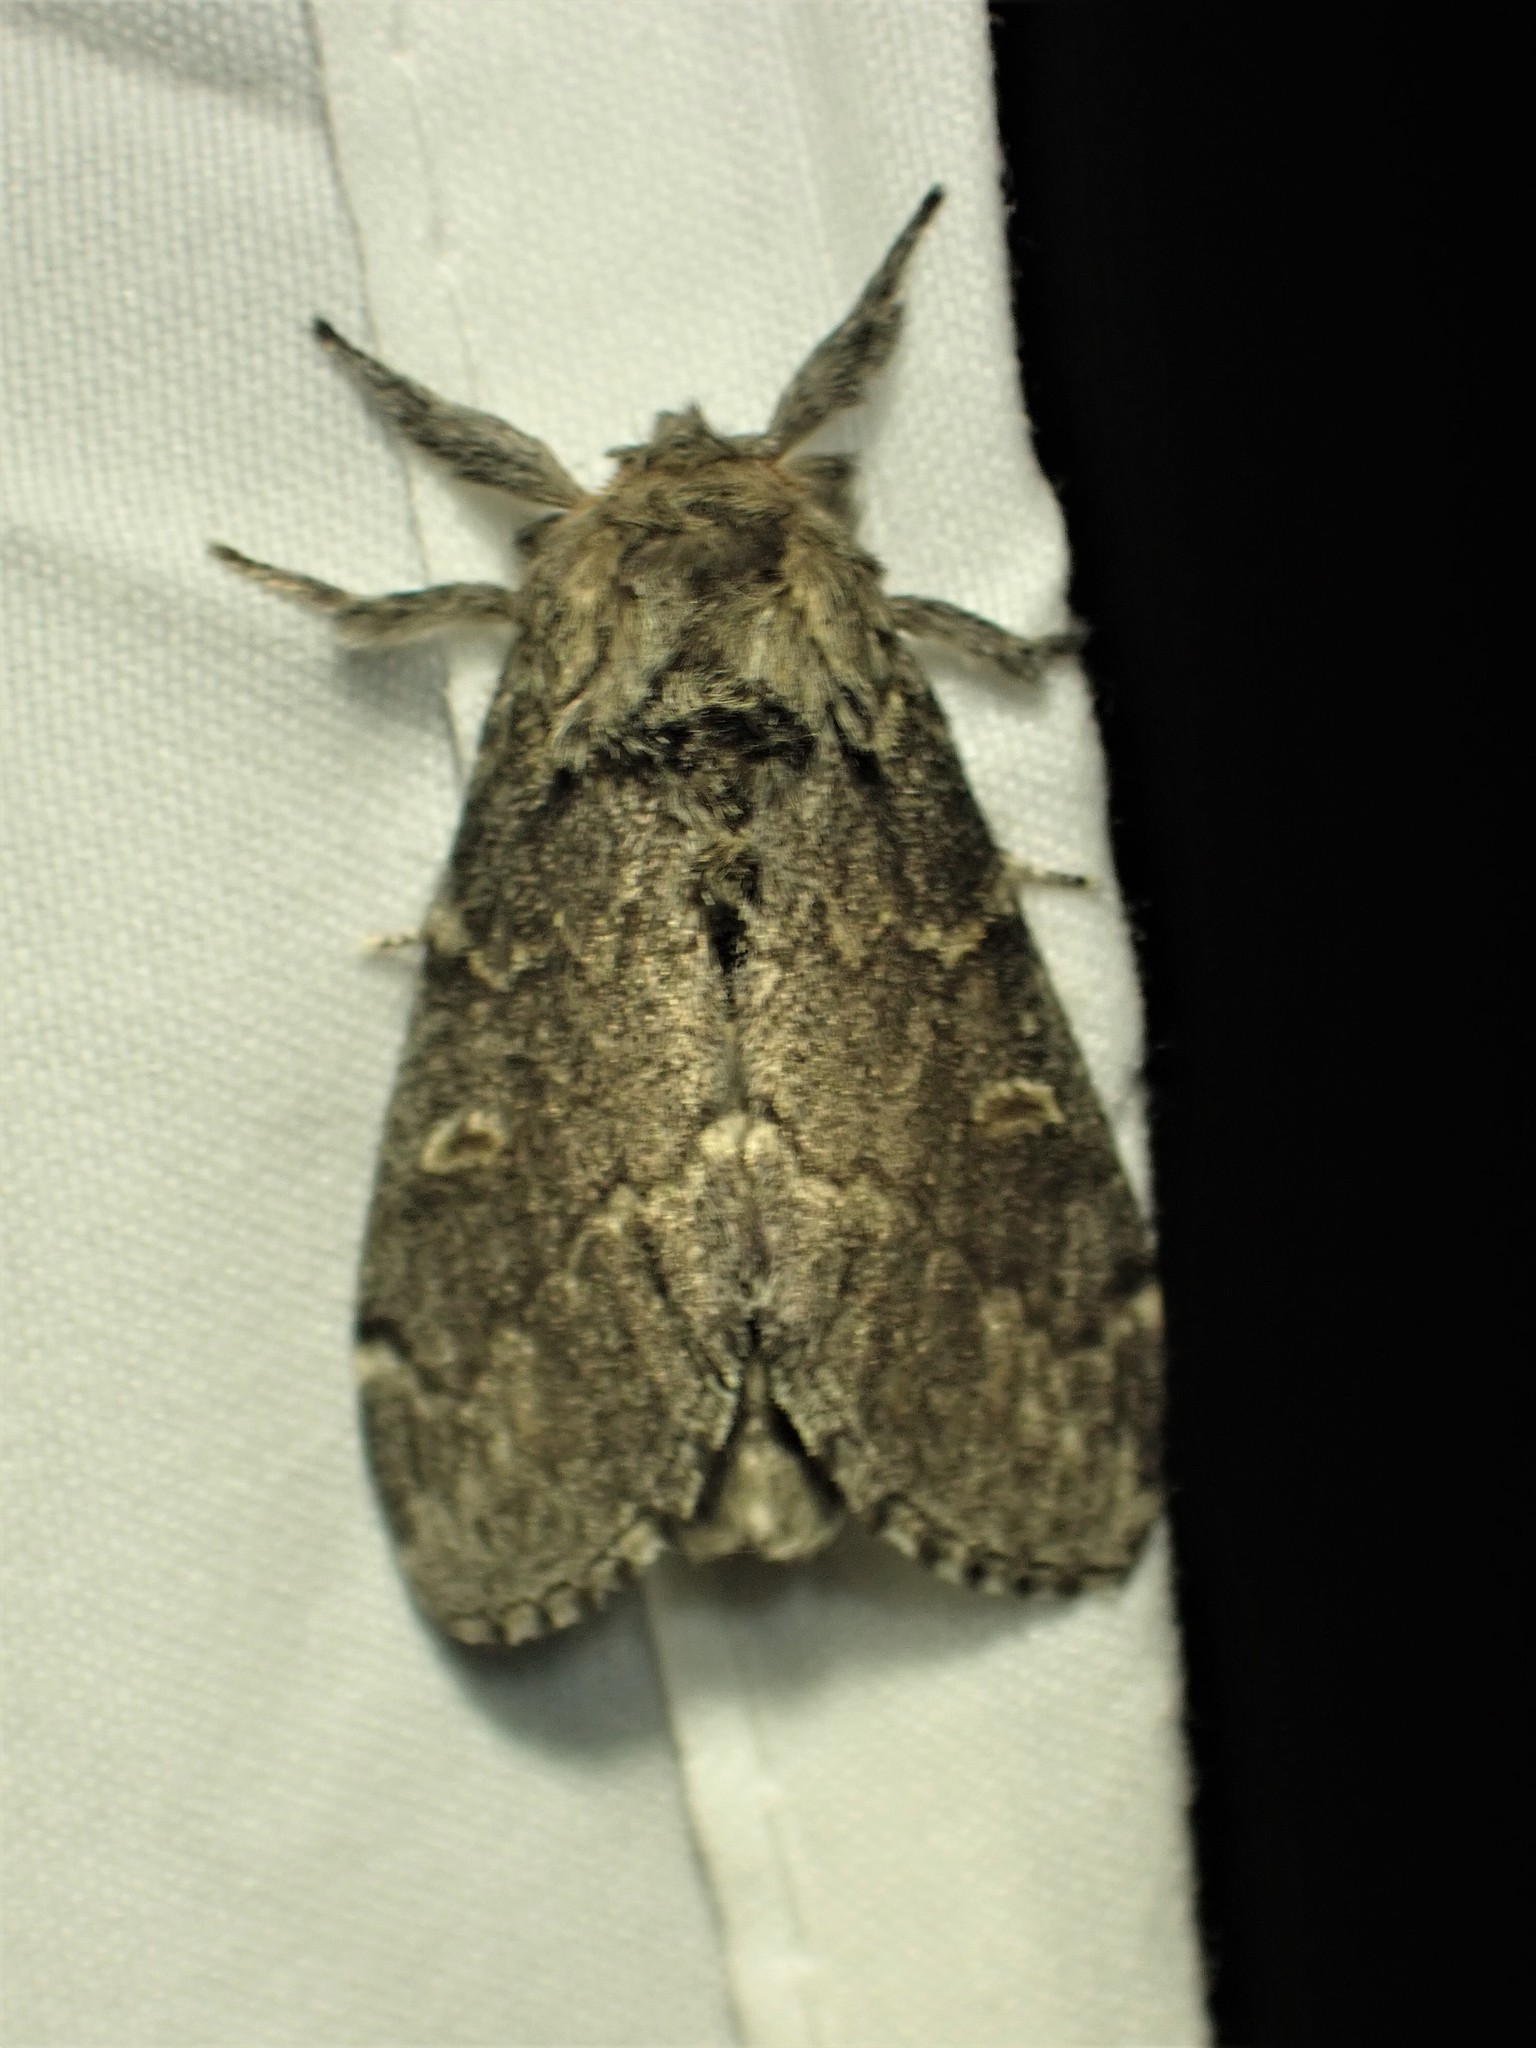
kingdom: Animalia
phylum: Arthropoda
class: Insecta
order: Lepidoptera
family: Notodontidae
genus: Notodonta
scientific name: Notodonta torva
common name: Large dark prominent
